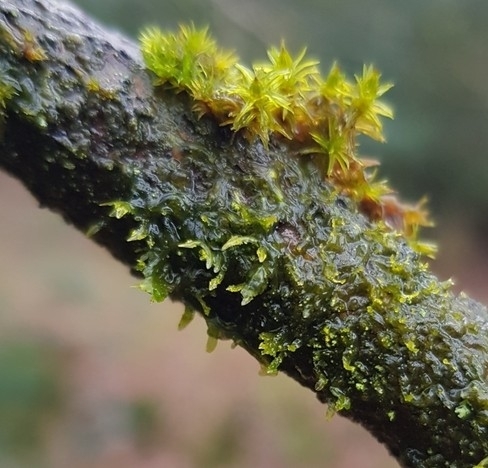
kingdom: Plantae
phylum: Marchantiophyta
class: Jungermanniopsida
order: Metzgeriales
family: Metzgeriaceae
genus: Metzgeria
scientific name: Metzgeria consanguinea
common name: Whiskered veilwort
